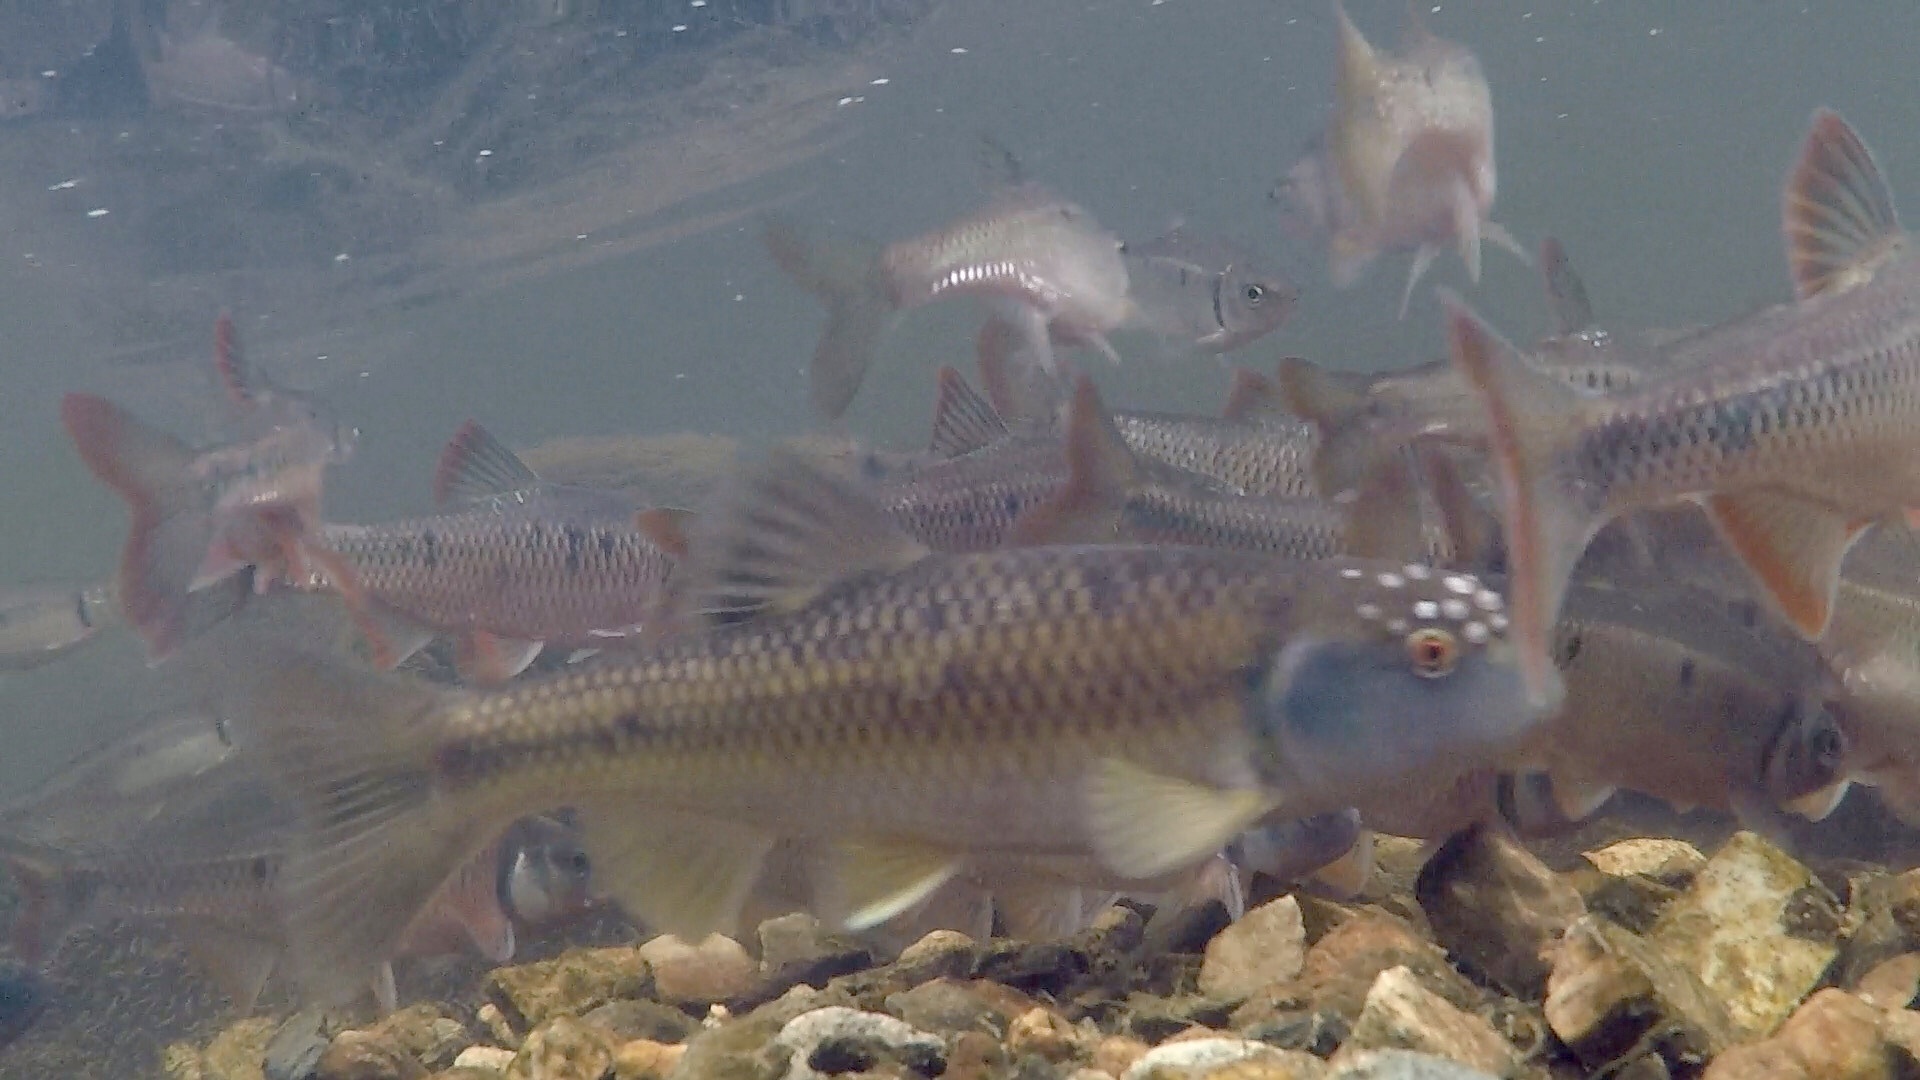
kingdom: Animalia
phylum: Chordata
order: Cypriniformes
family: Cyprinidae
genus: Nocomis
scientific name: Nocomis leptocephalus
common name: Bluehead chub
